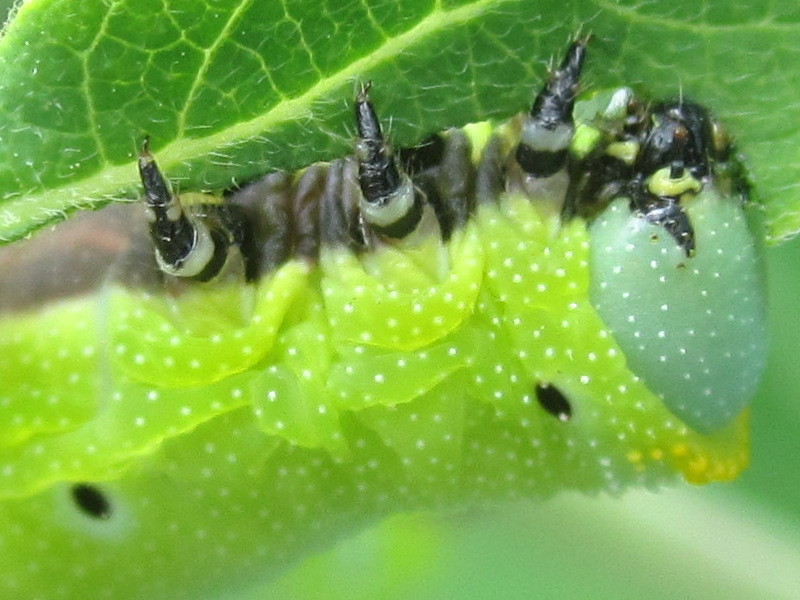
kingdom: Animalia
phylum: Arthropoda
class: Insecta
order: Lepidoptera
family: Sphingidae
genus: Hemaris
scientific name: Hemaris diffinis
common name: Bumblebee moth
